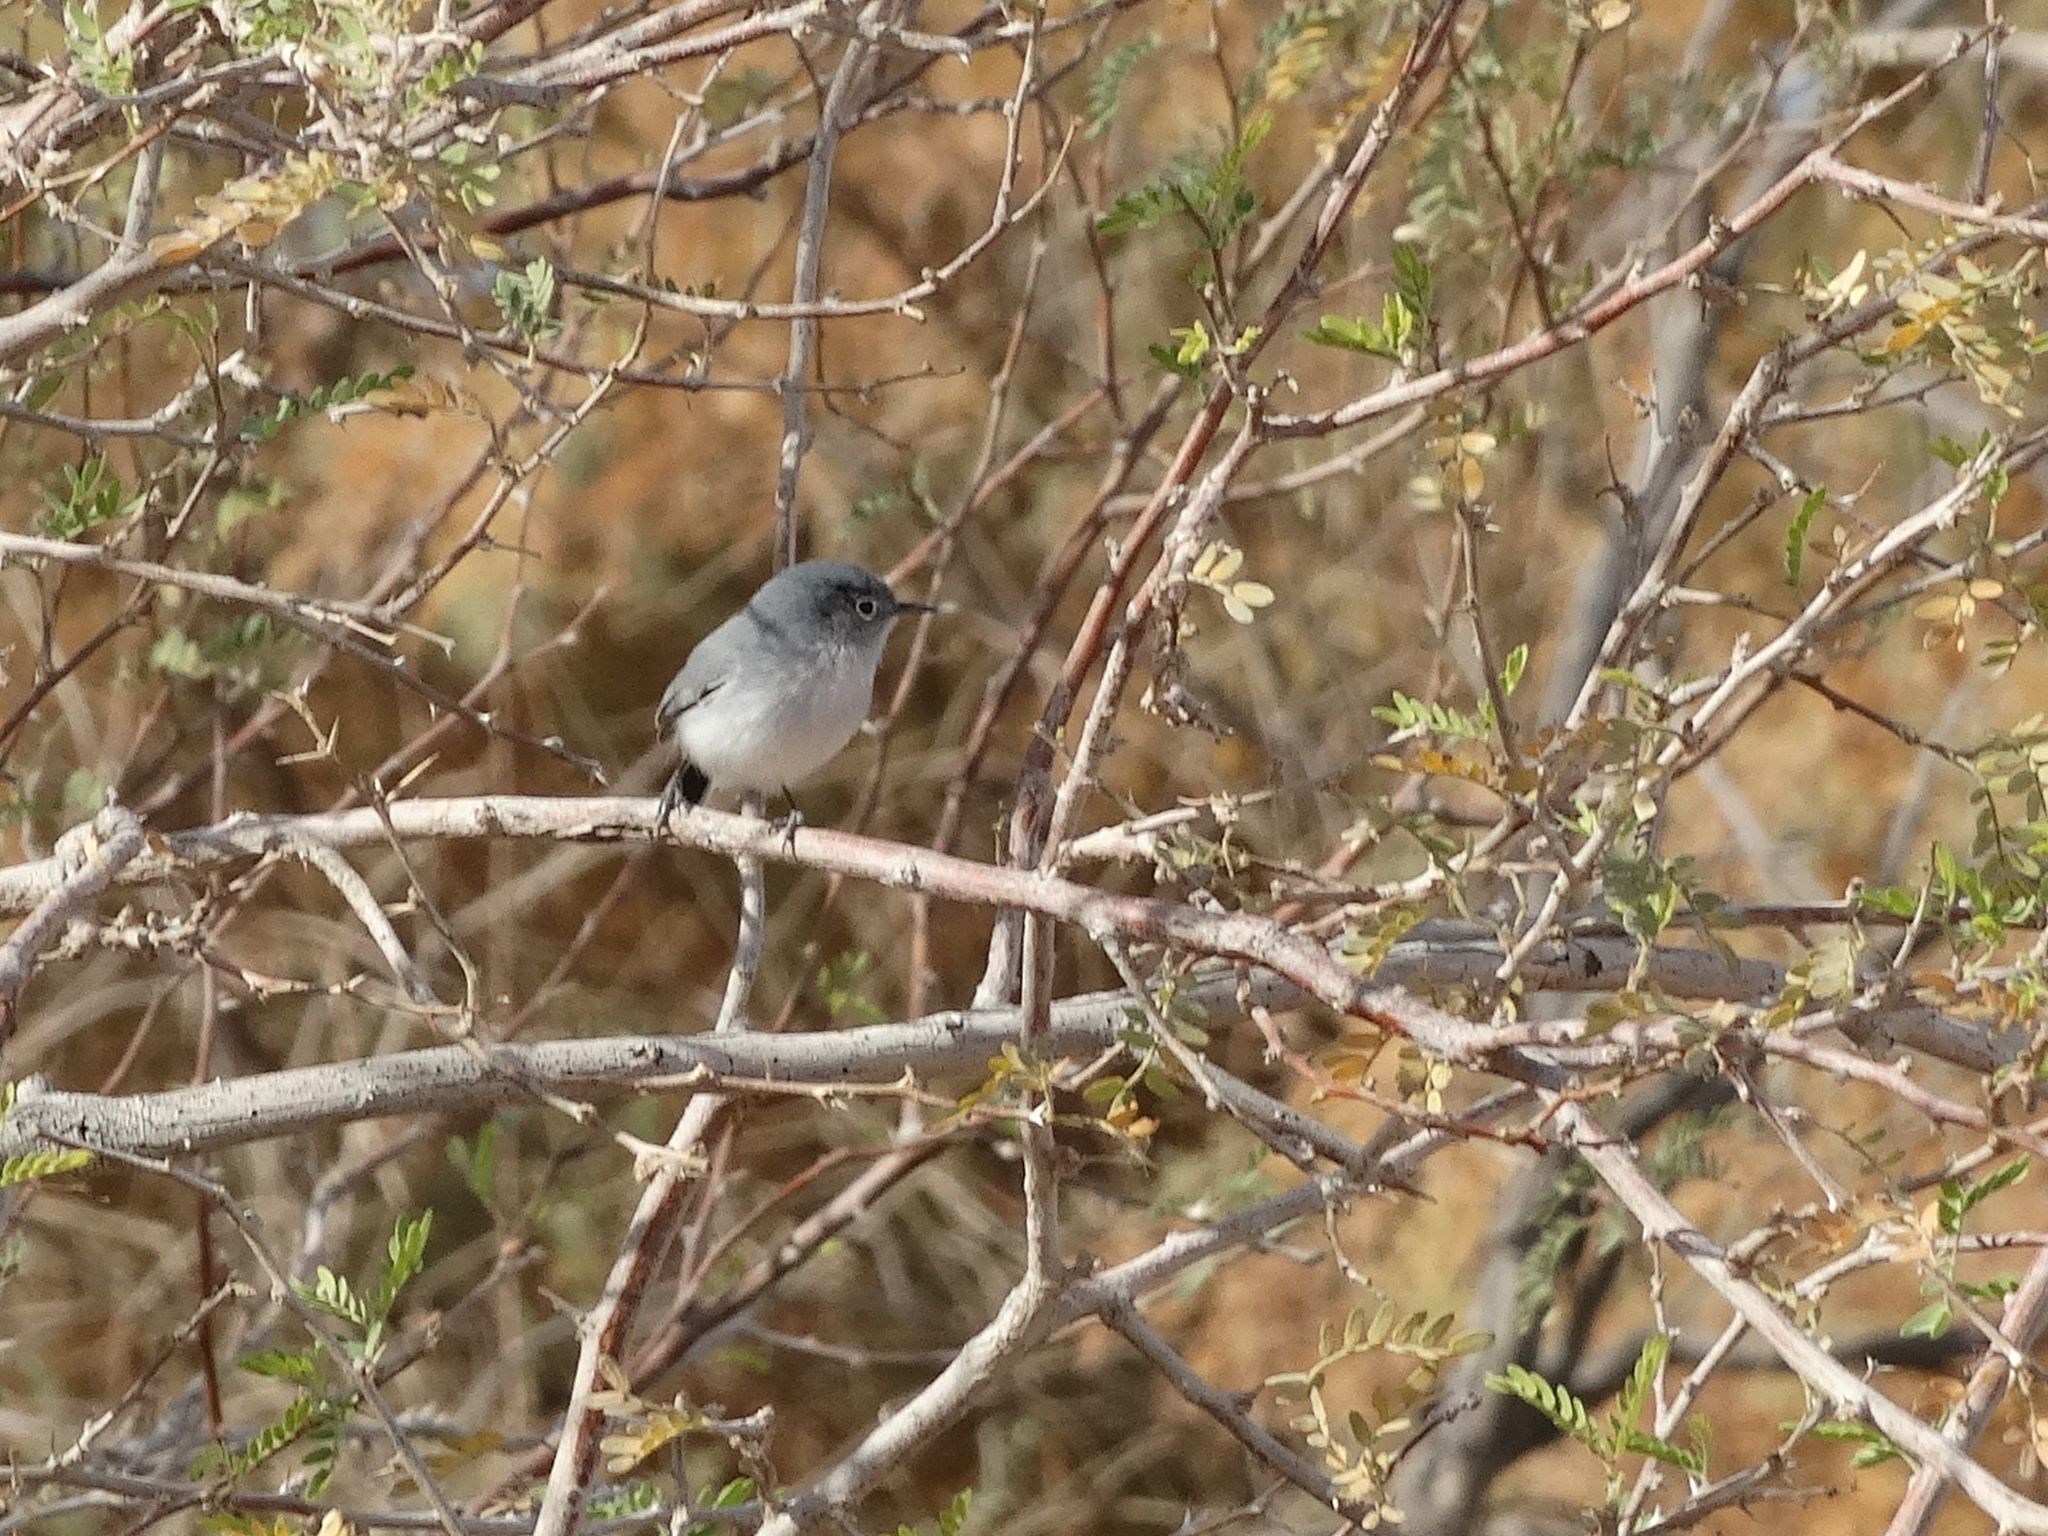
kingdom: Animalia
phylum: Chordata
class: Aves
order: Passeriformes
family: Polioptilidae
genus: Polioptila
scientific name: Polioptila melanura
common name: Black-tailed gnatcatcher
